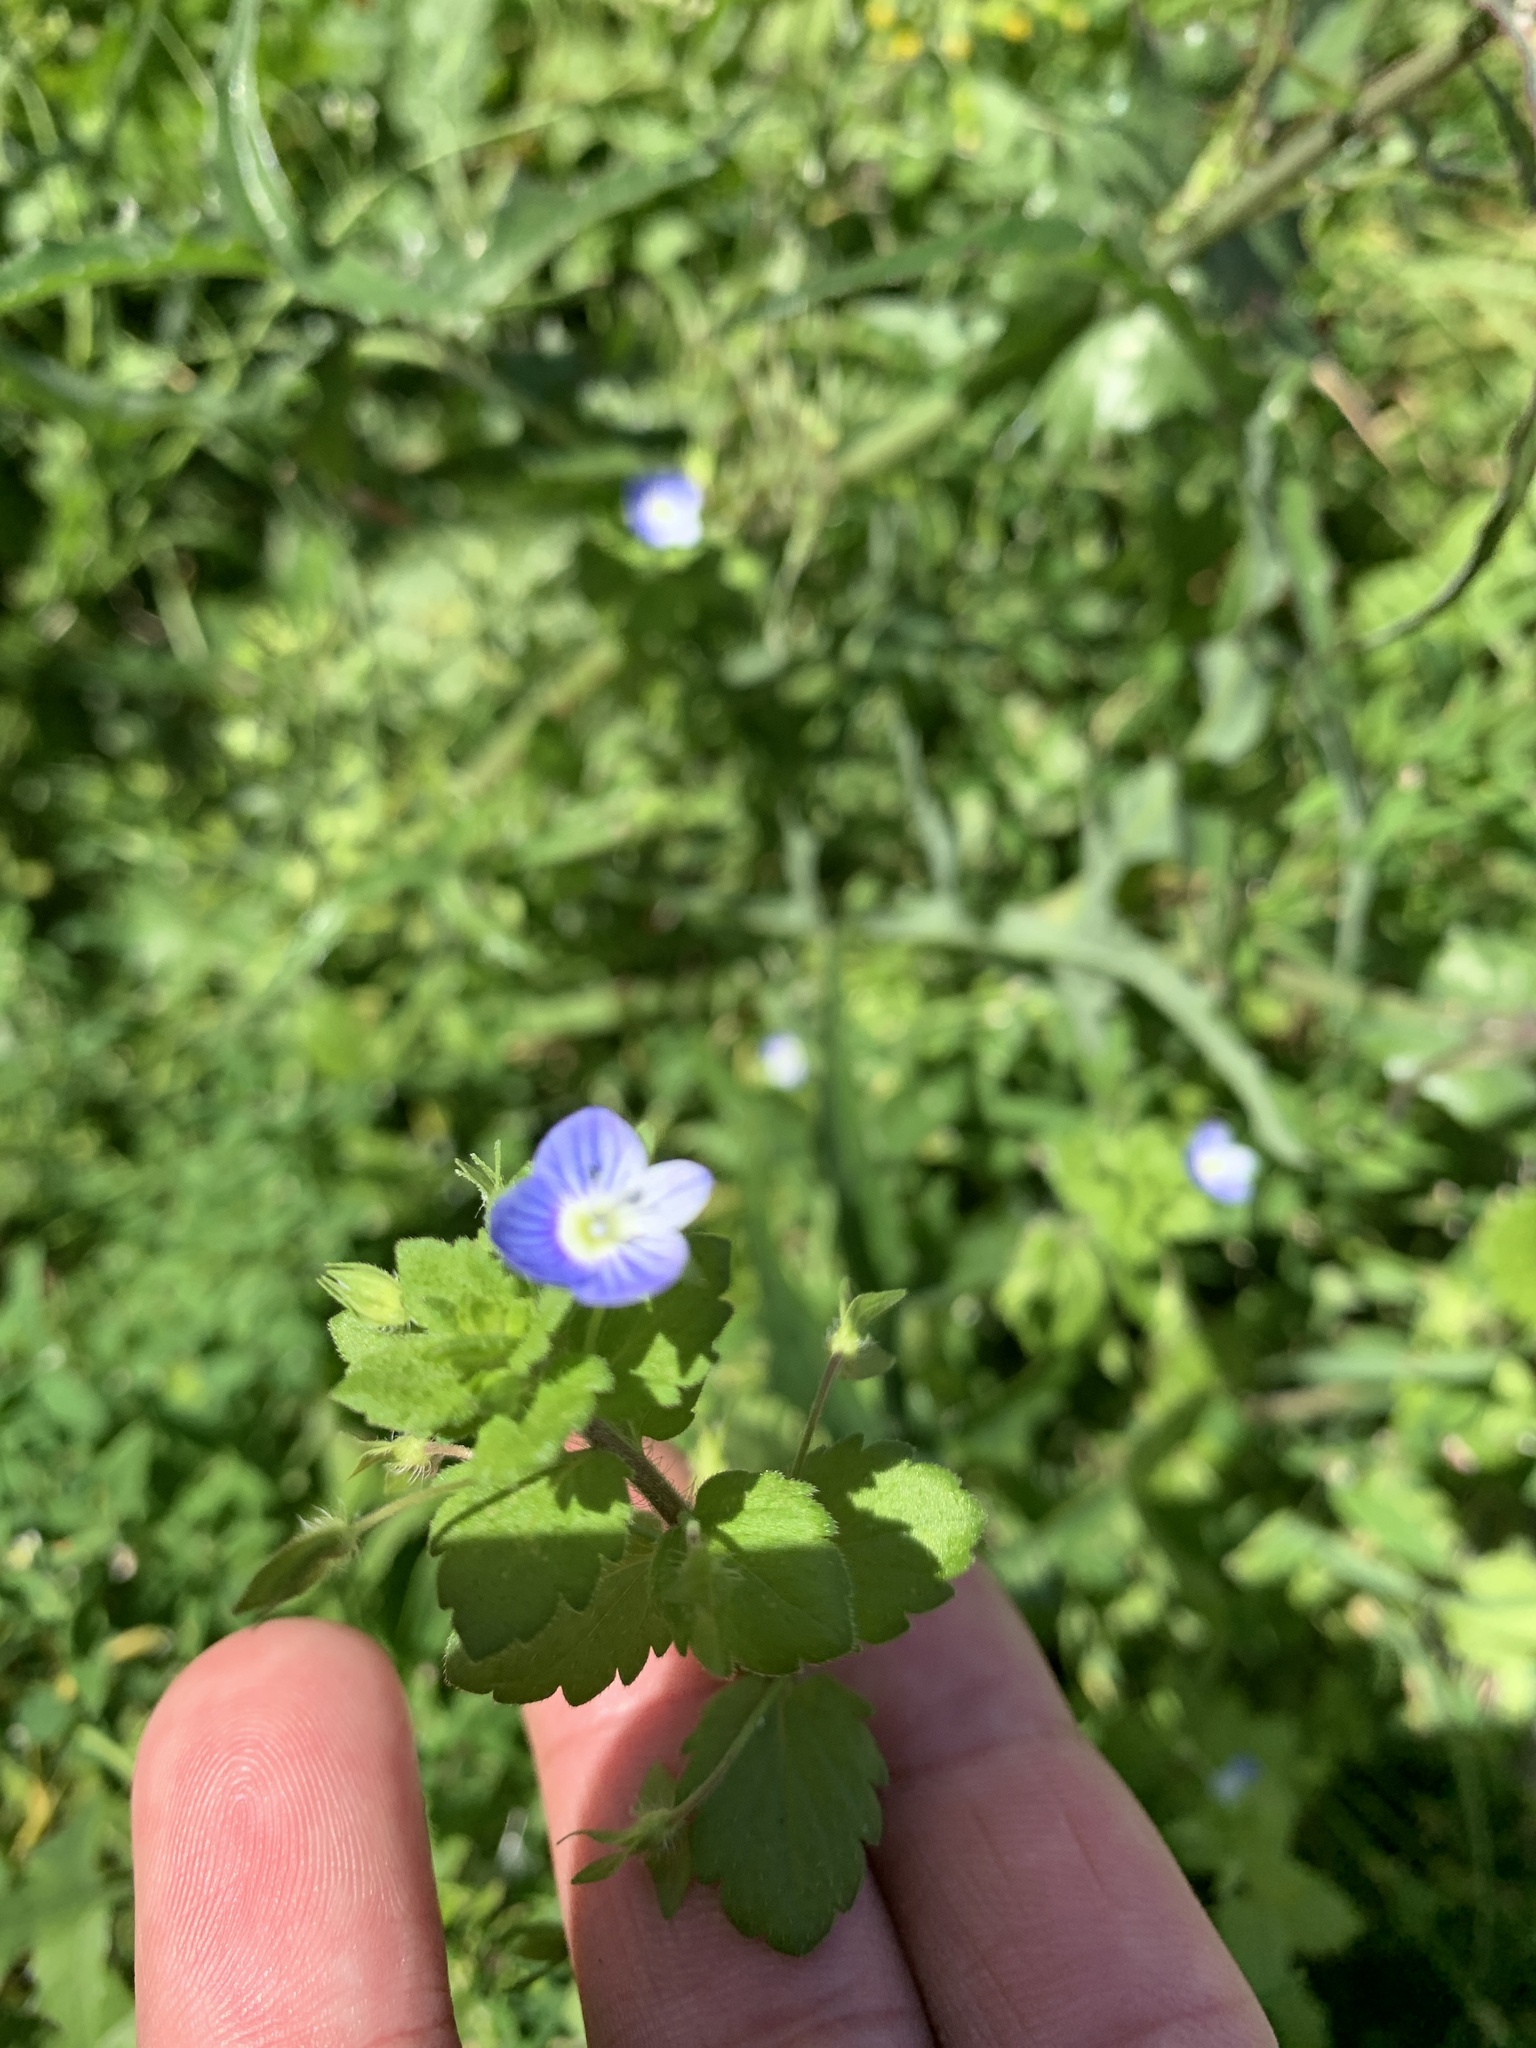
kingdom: Plantae
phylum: Tracheophyta
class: Magnoliopsida
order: Lamiales
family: Plantaginaceae
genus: Veronica
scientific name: Veronica persica
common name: Common field-speedwell
